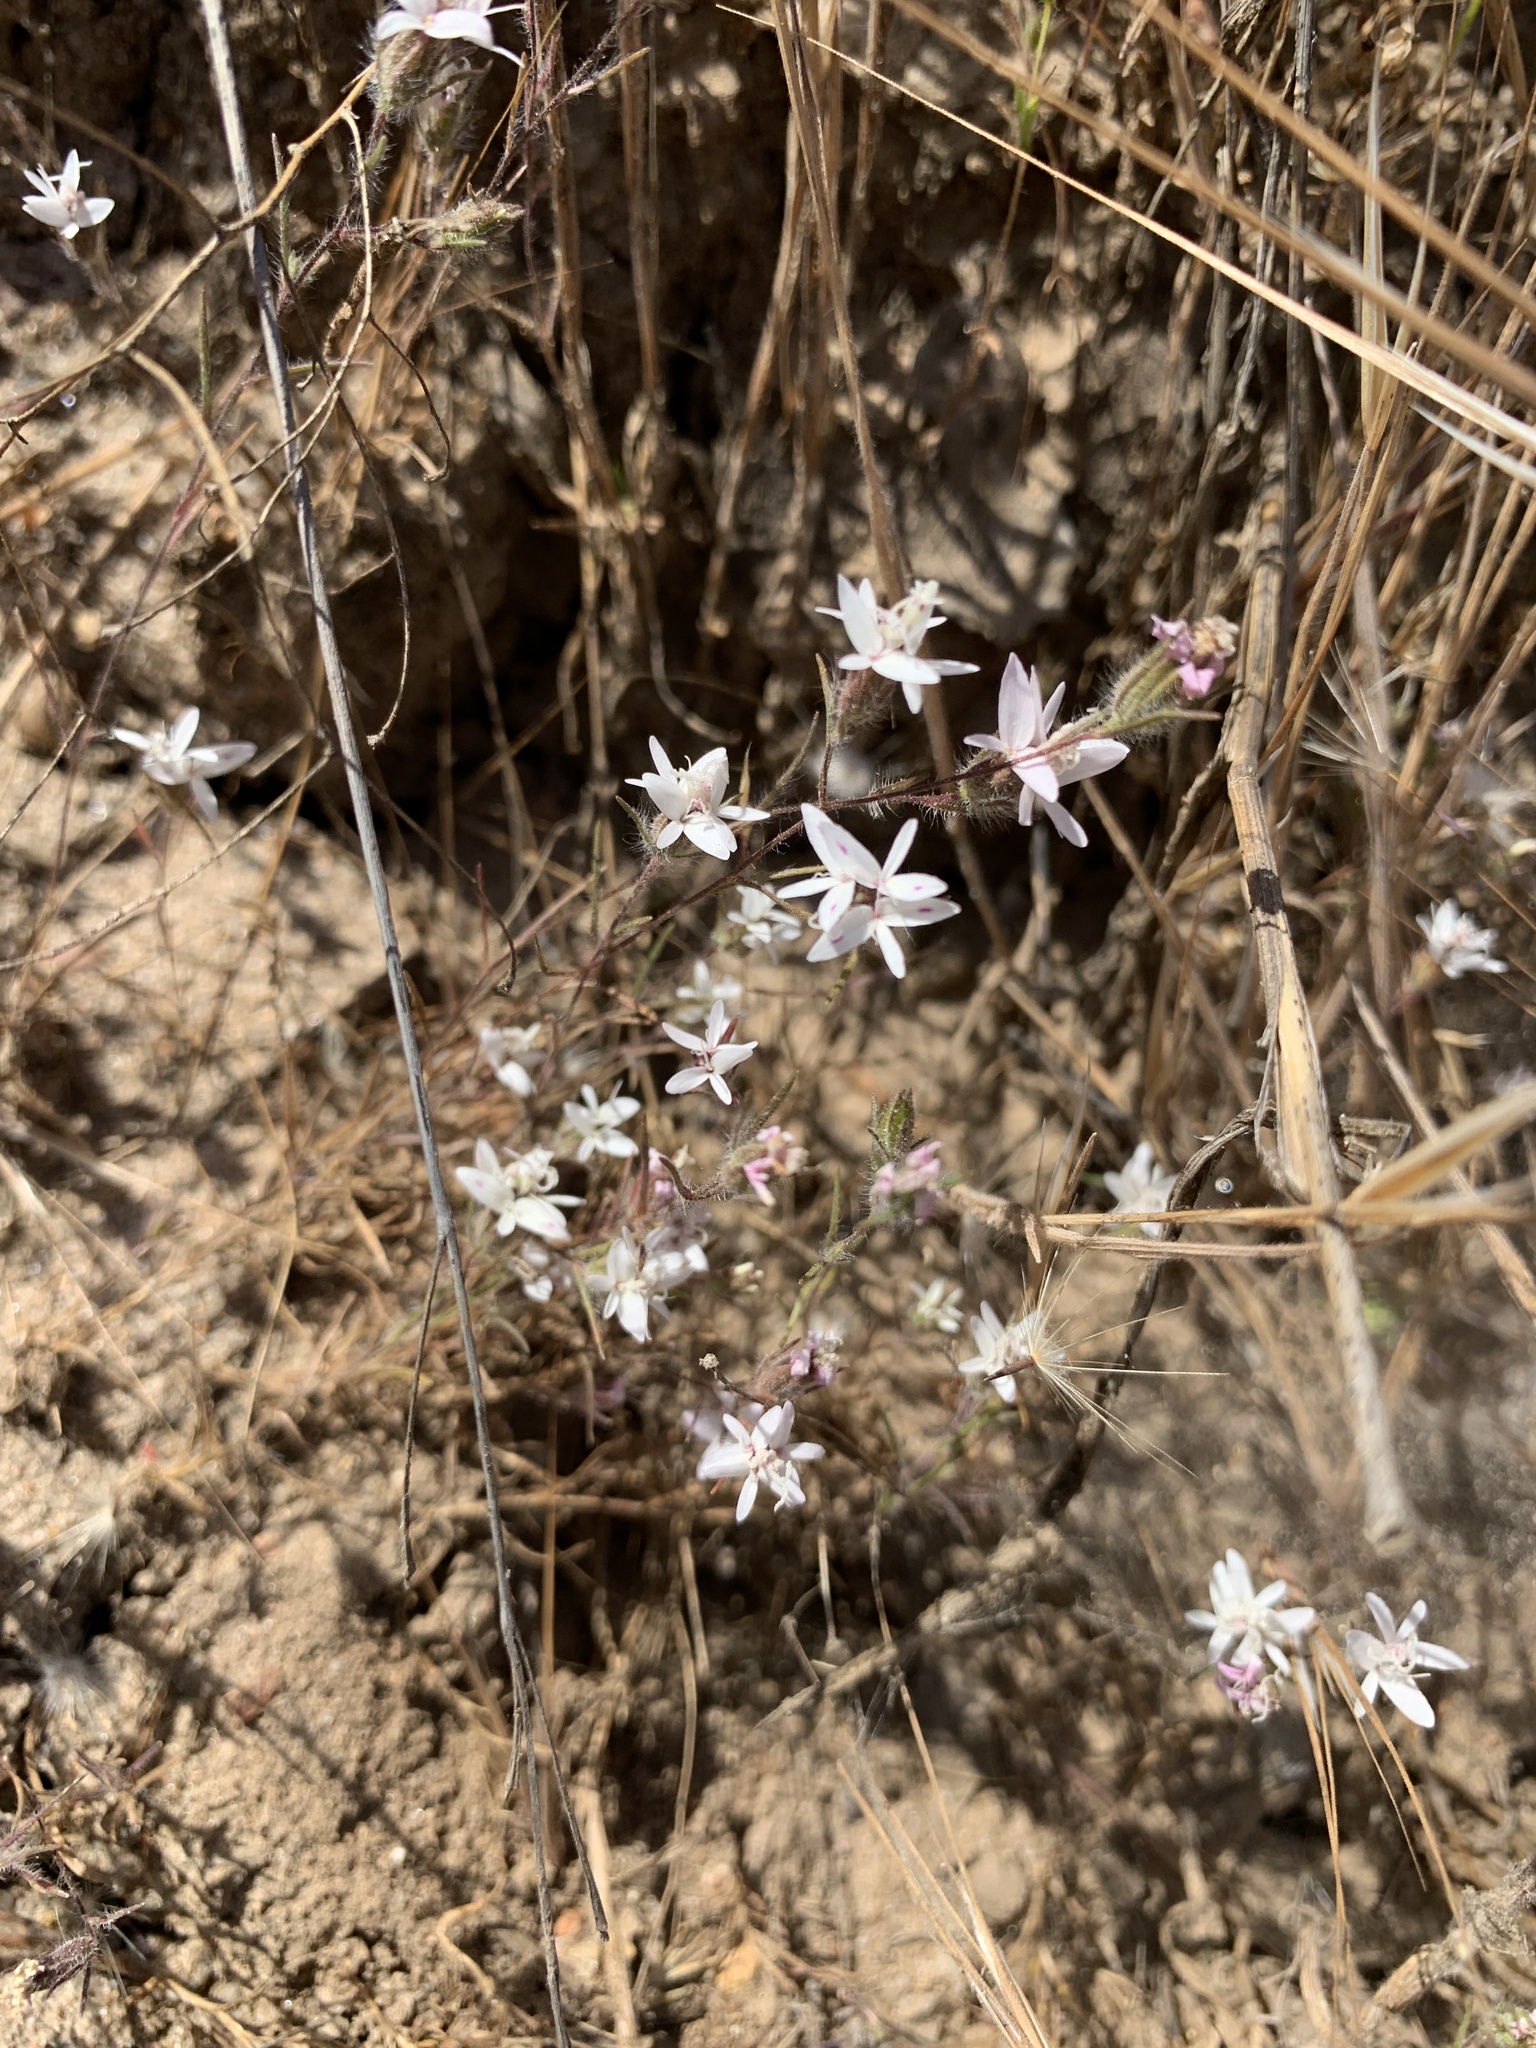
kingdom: Plantae
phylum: Tracheophyta
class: Magnoliopsida
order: Asterales
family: Asteraceae
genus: Osmadenia
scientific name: Osmadenia tenella
